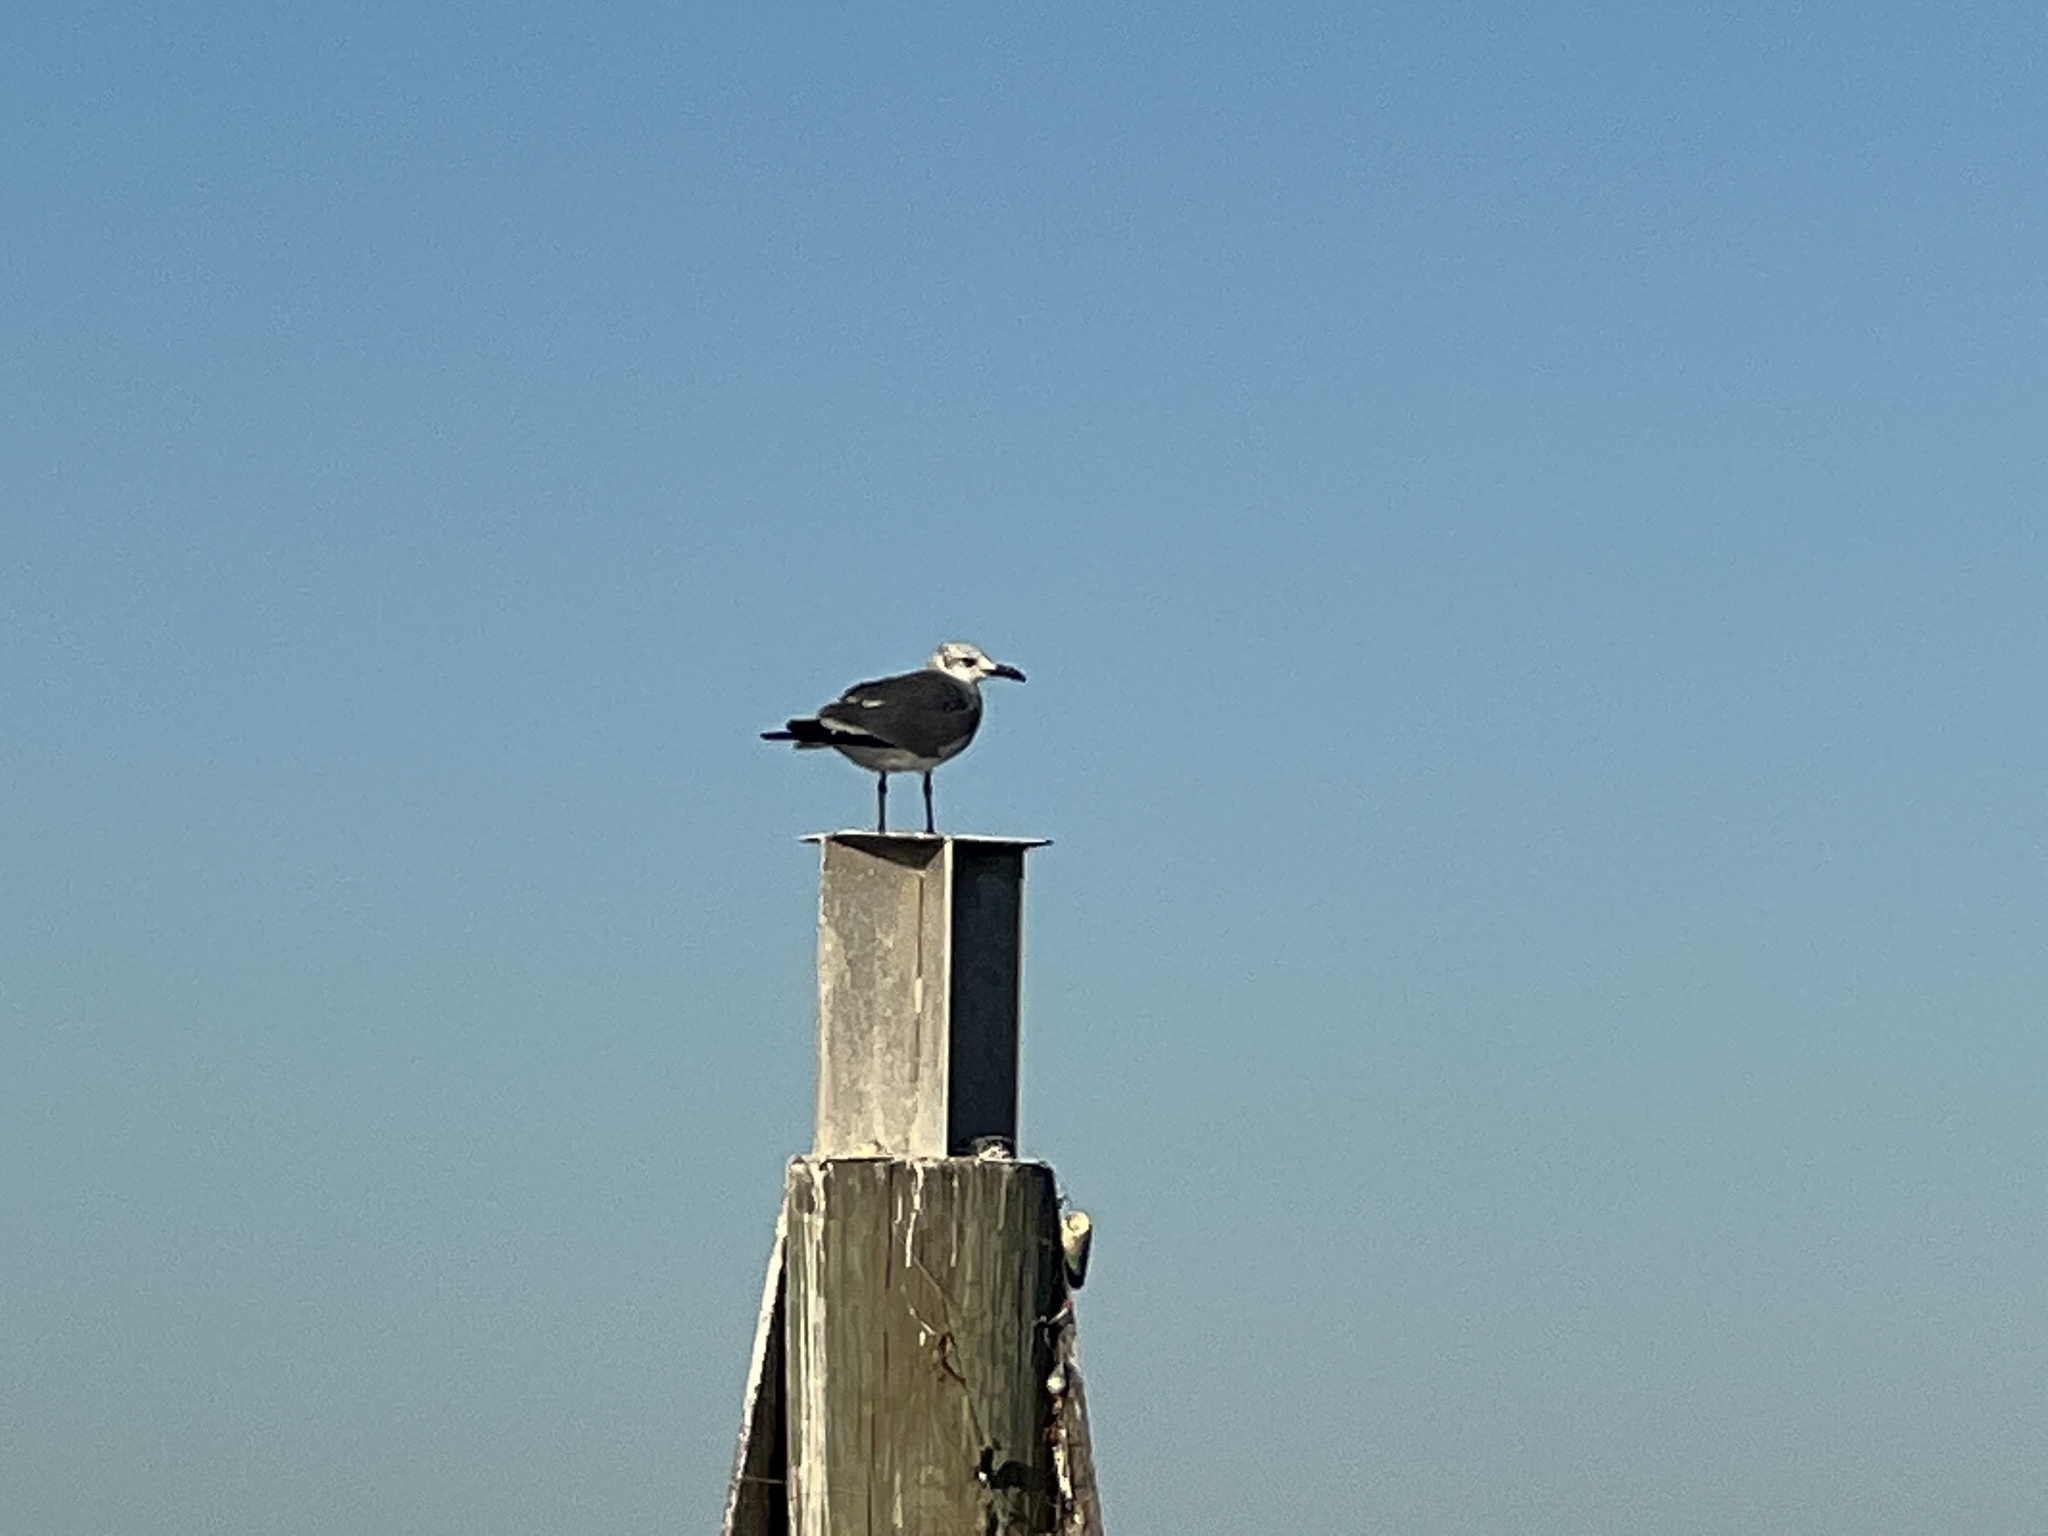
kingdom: Animalia
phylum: Chordata
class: Aves
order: Charadriiformes
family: Laridae
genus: Leucophaeus
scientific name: Leucophaeus atricilla
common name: Laughing gull
